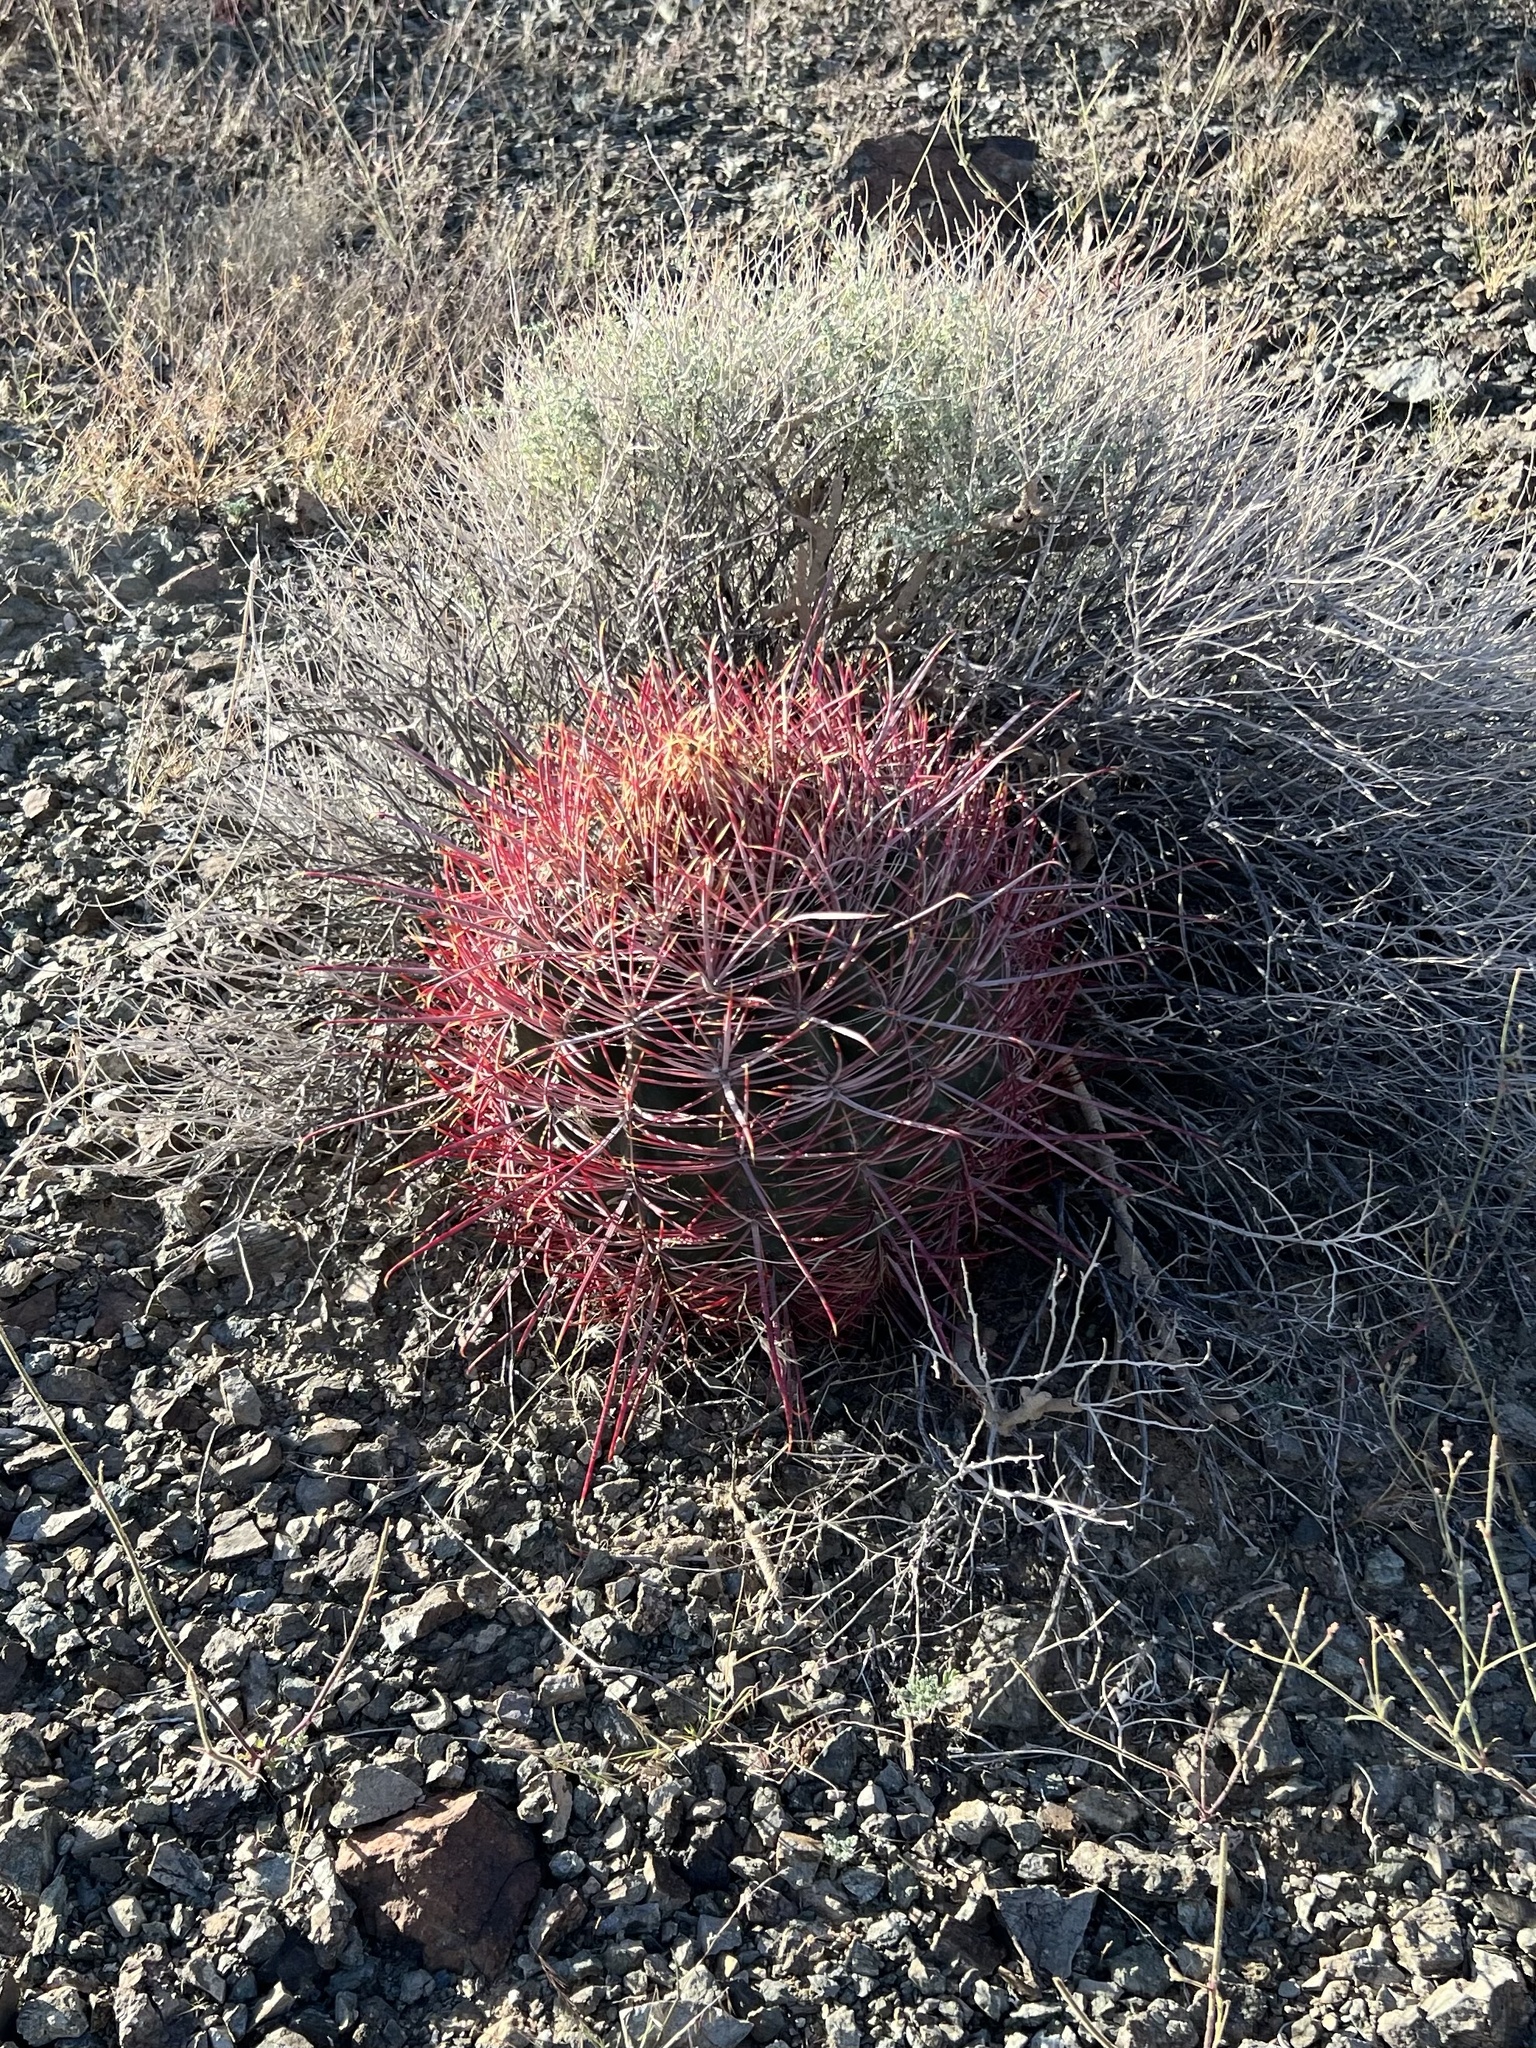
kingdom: Plantae
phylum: Tracheophyta
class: Magnoliopsida
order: Caryophyllales
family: Cactaceae
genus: Ferocactus
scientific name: Ferocactus cylindraceus
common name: California barrel cactus
